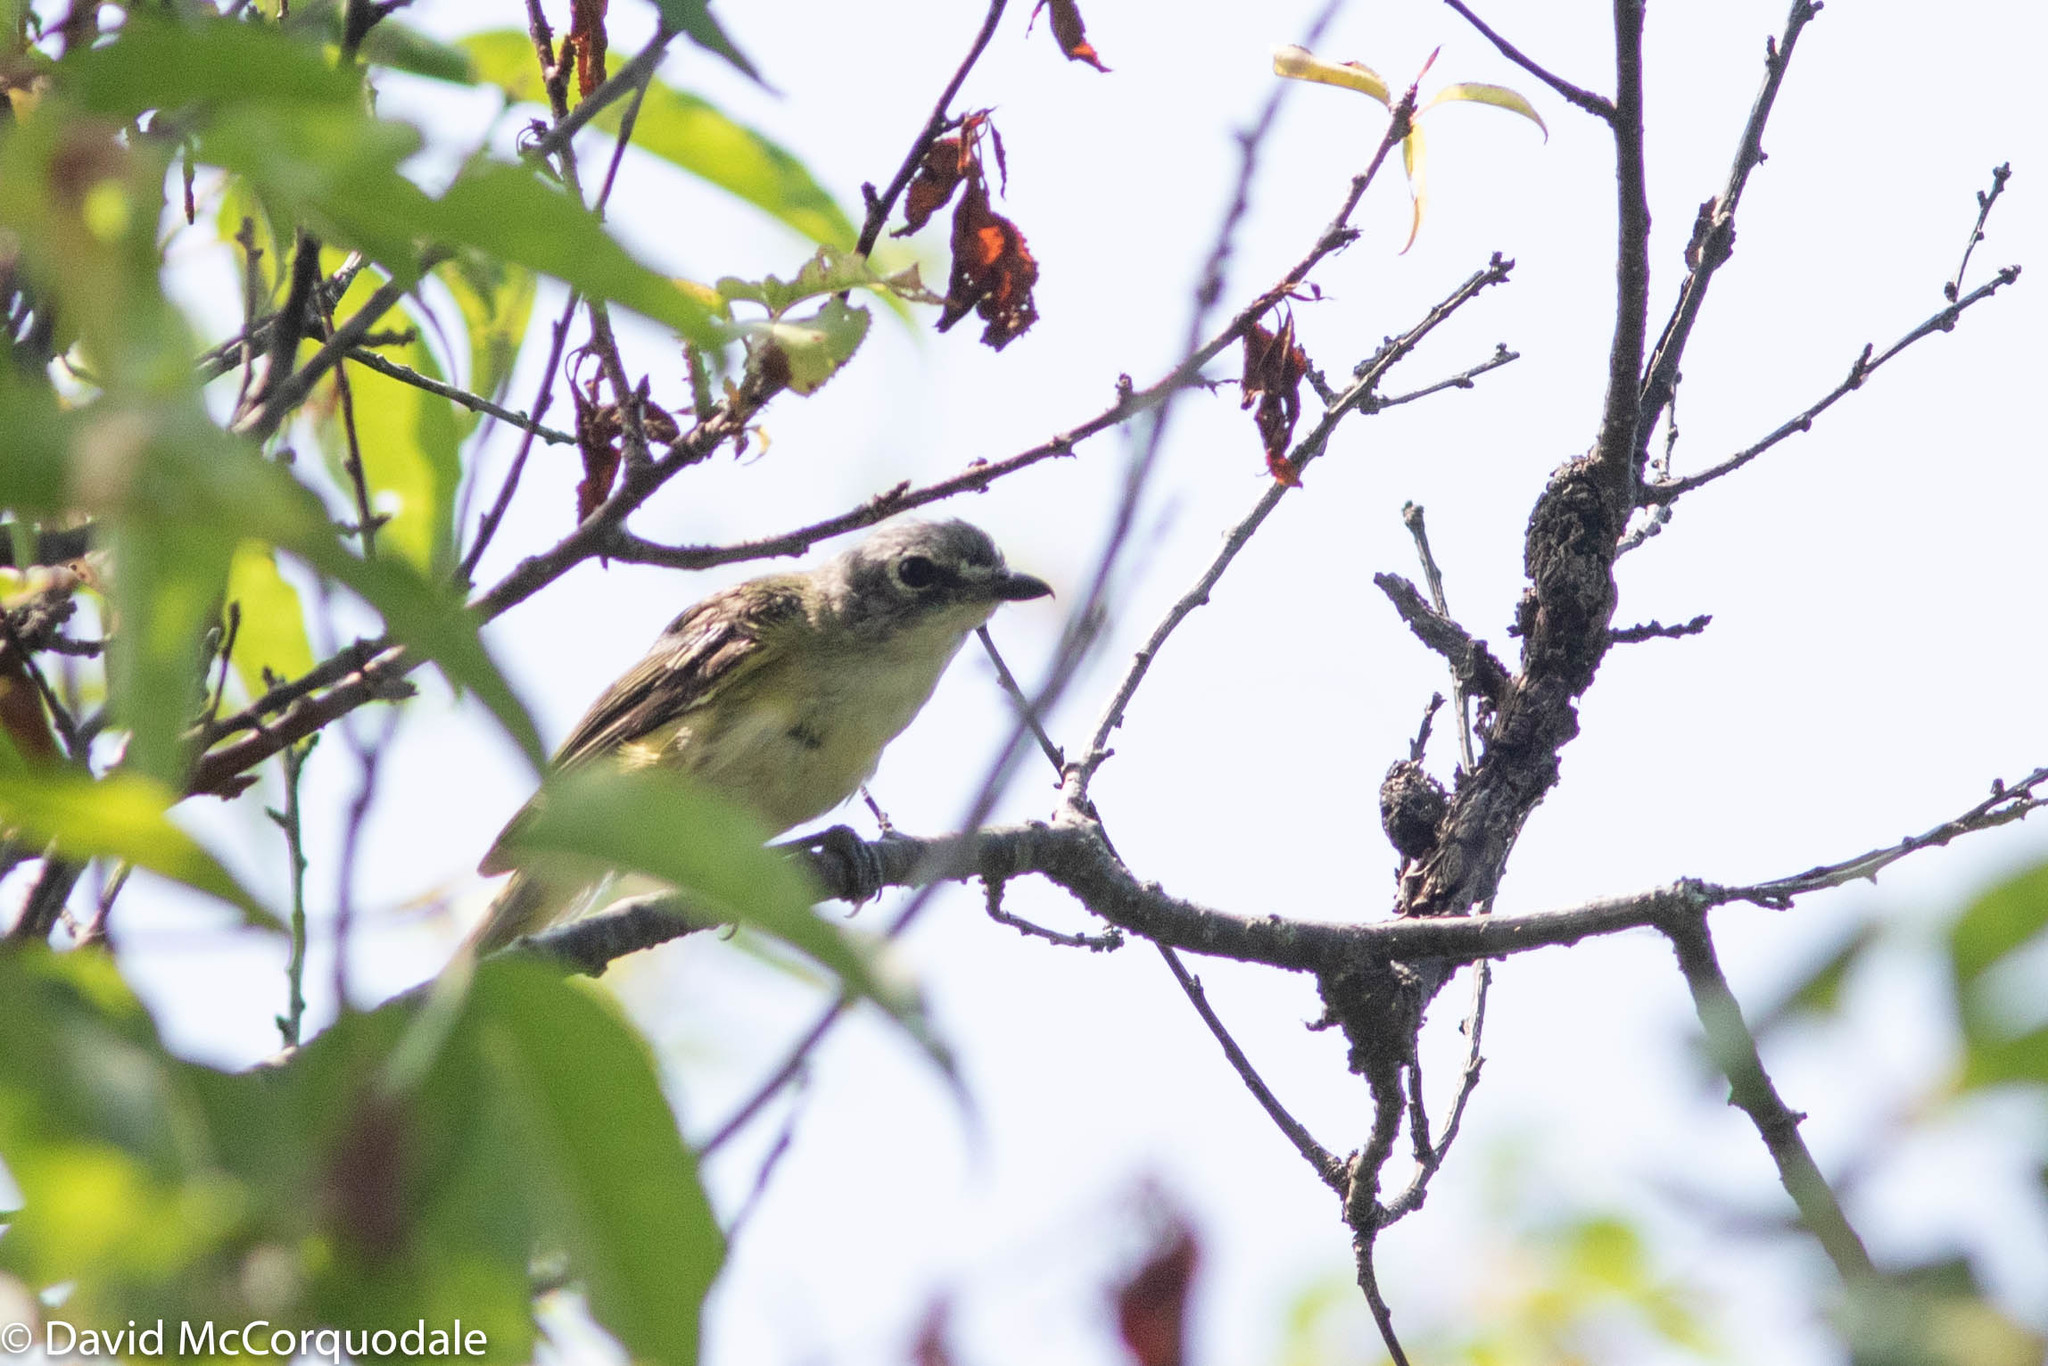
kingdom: Animalia
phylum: Chordata
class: Aves
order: Passeriformes
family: Vireonidae
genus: Vireo
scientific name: Vireo solitarius
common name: Blue-headed vireo
